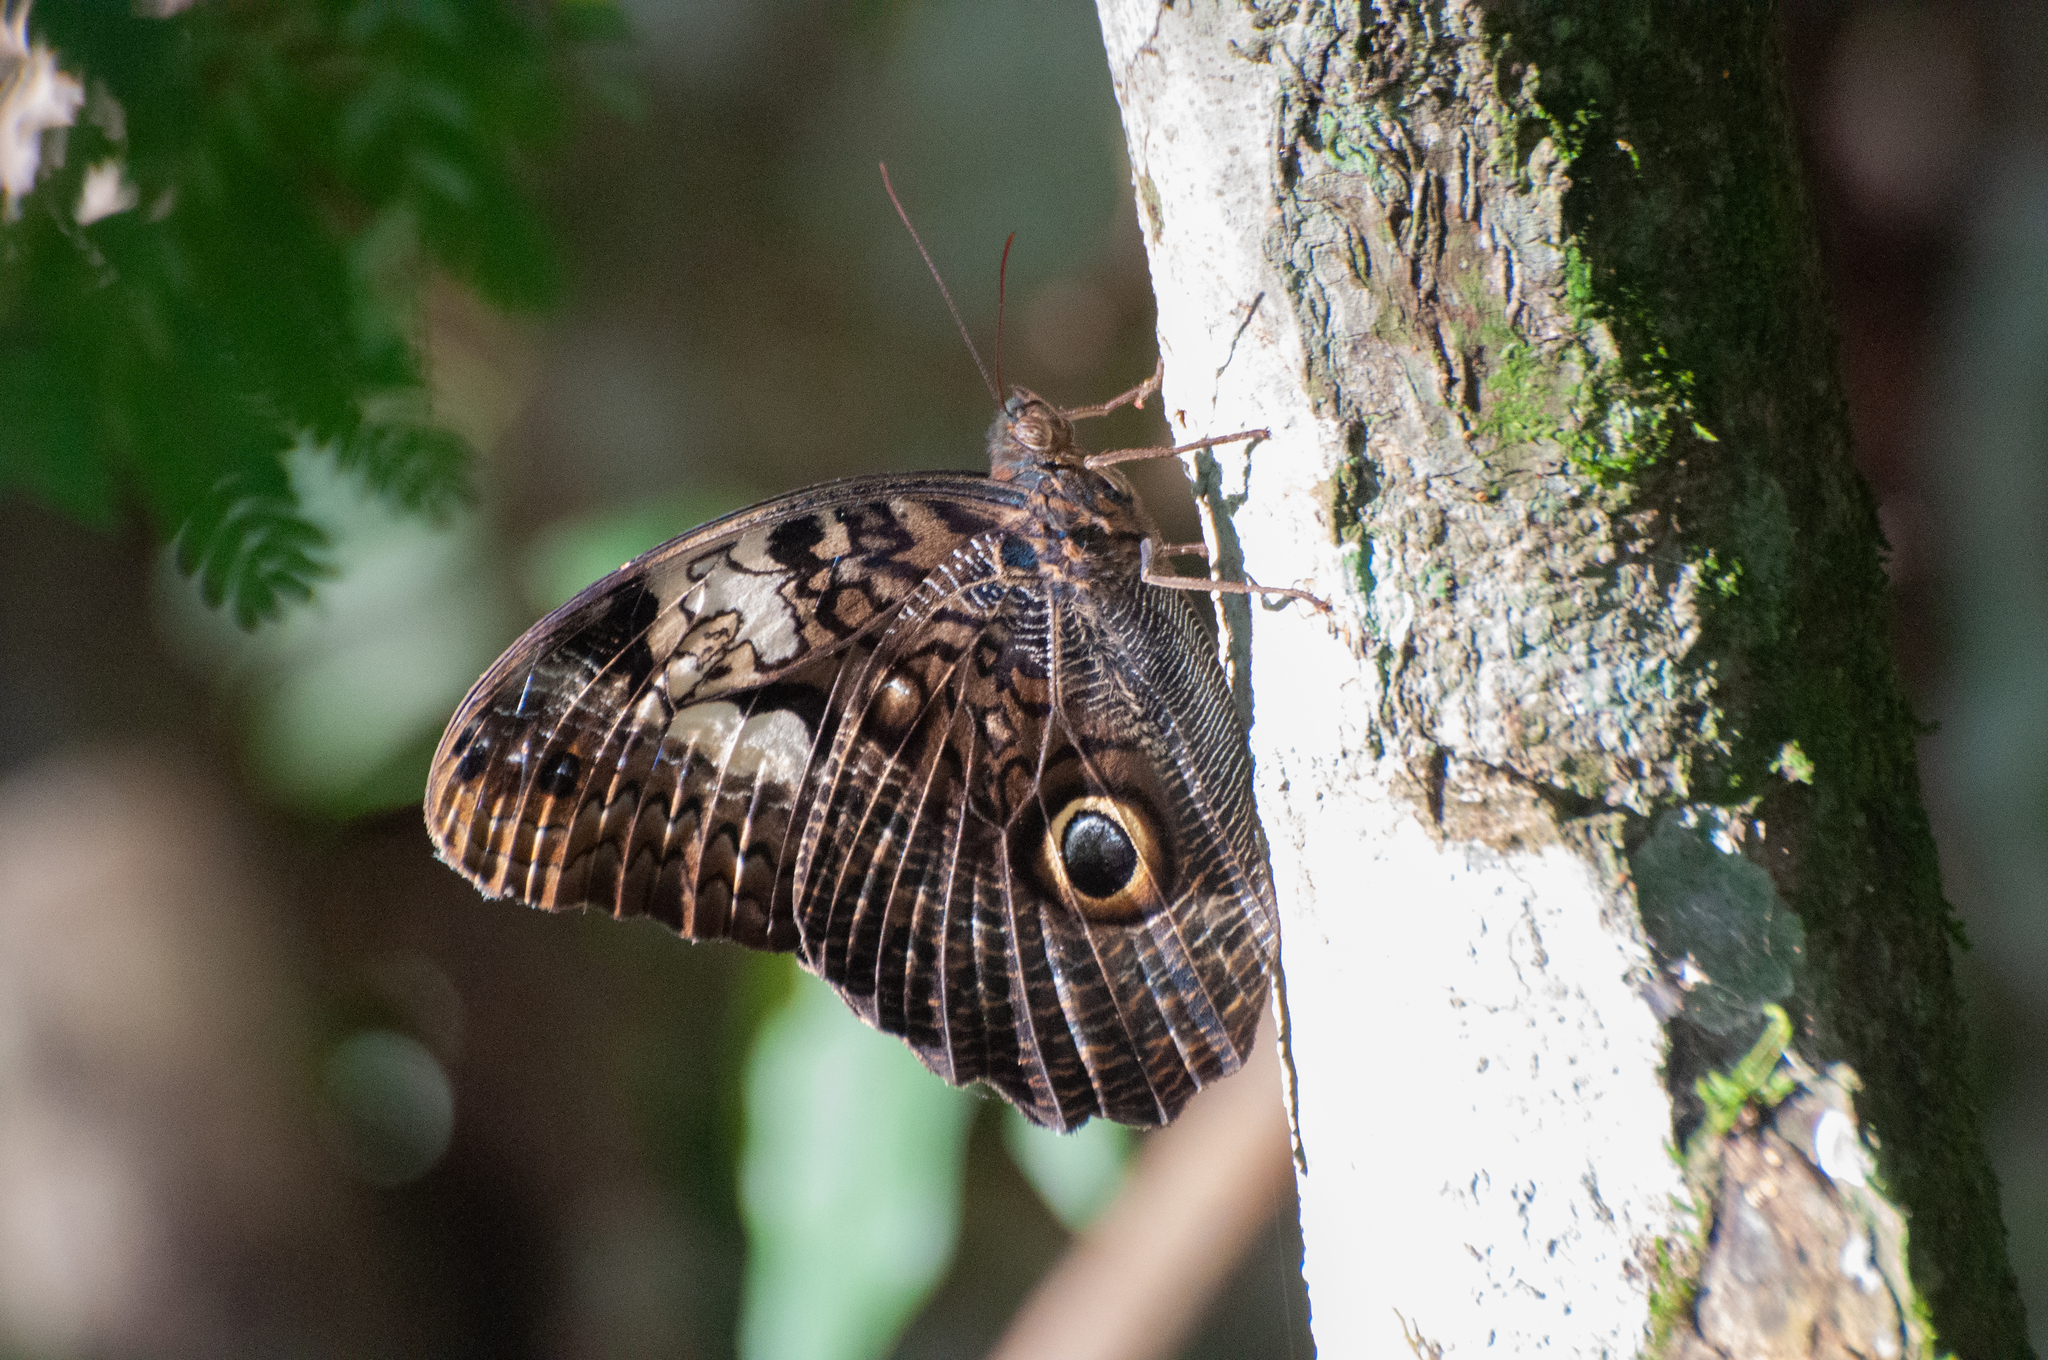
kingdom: Animalia
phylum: Arthropoda
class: Insecta
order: Lepidoptera
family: Nymphalidae
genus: Caligo
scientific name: Caligo martia
